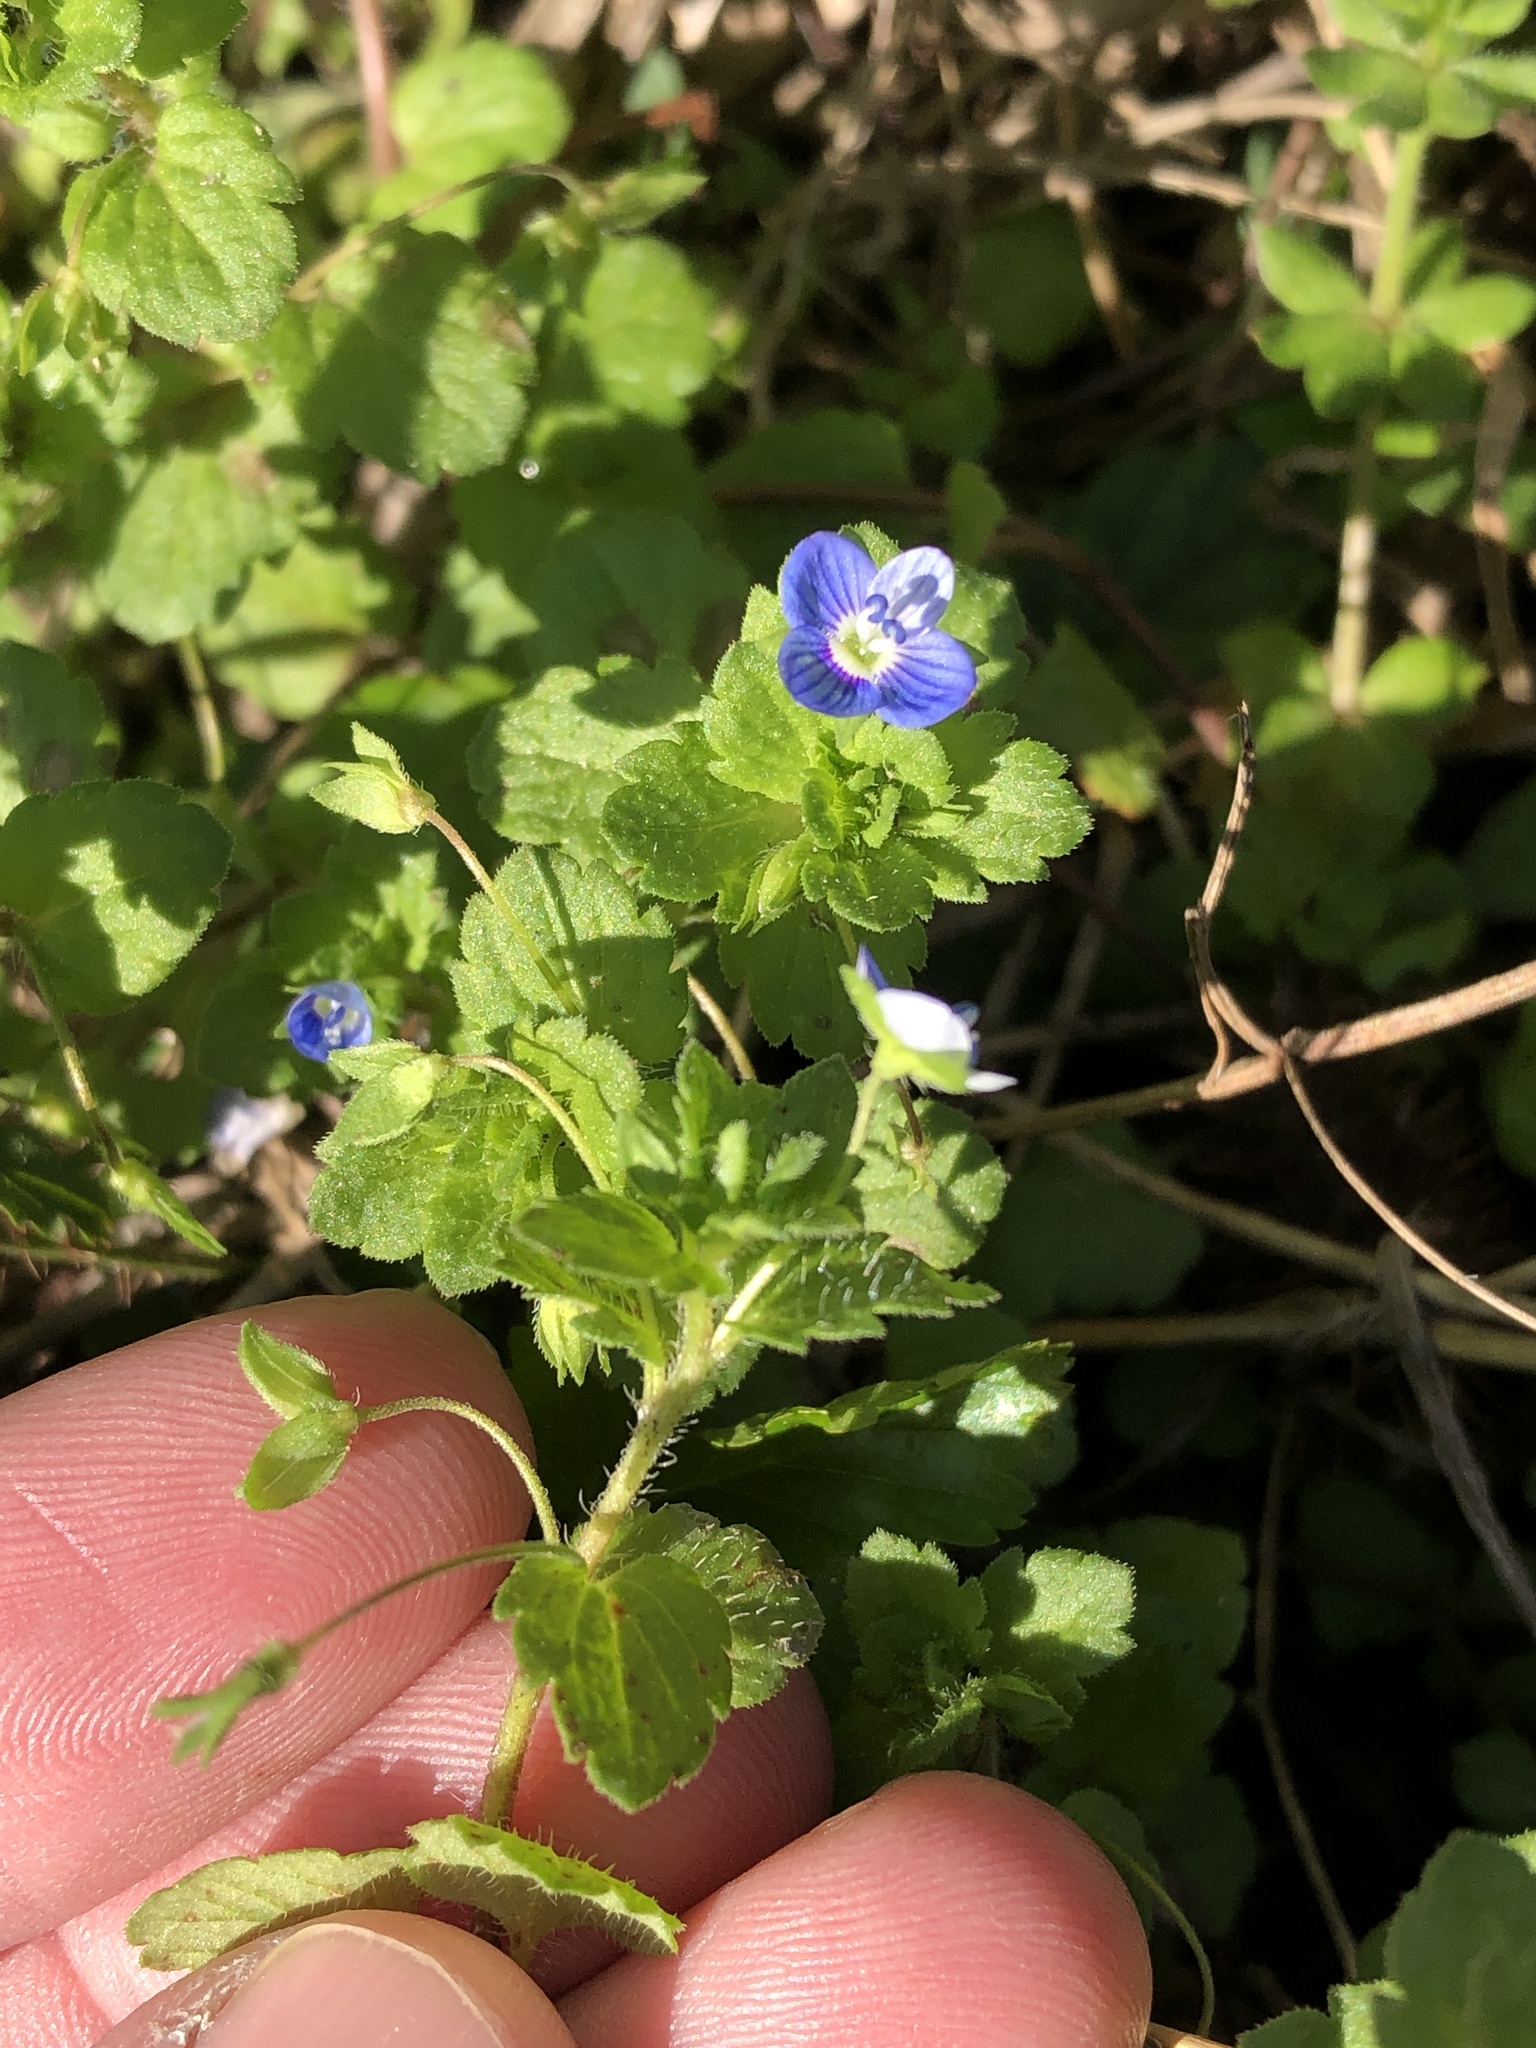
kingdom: Plantae
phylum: Tracheophyta
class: Magnoliopsida
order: Lamiales
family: Plantaginaceae
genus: Veronica
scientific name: Veronica persica
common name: Common field-speedwell
